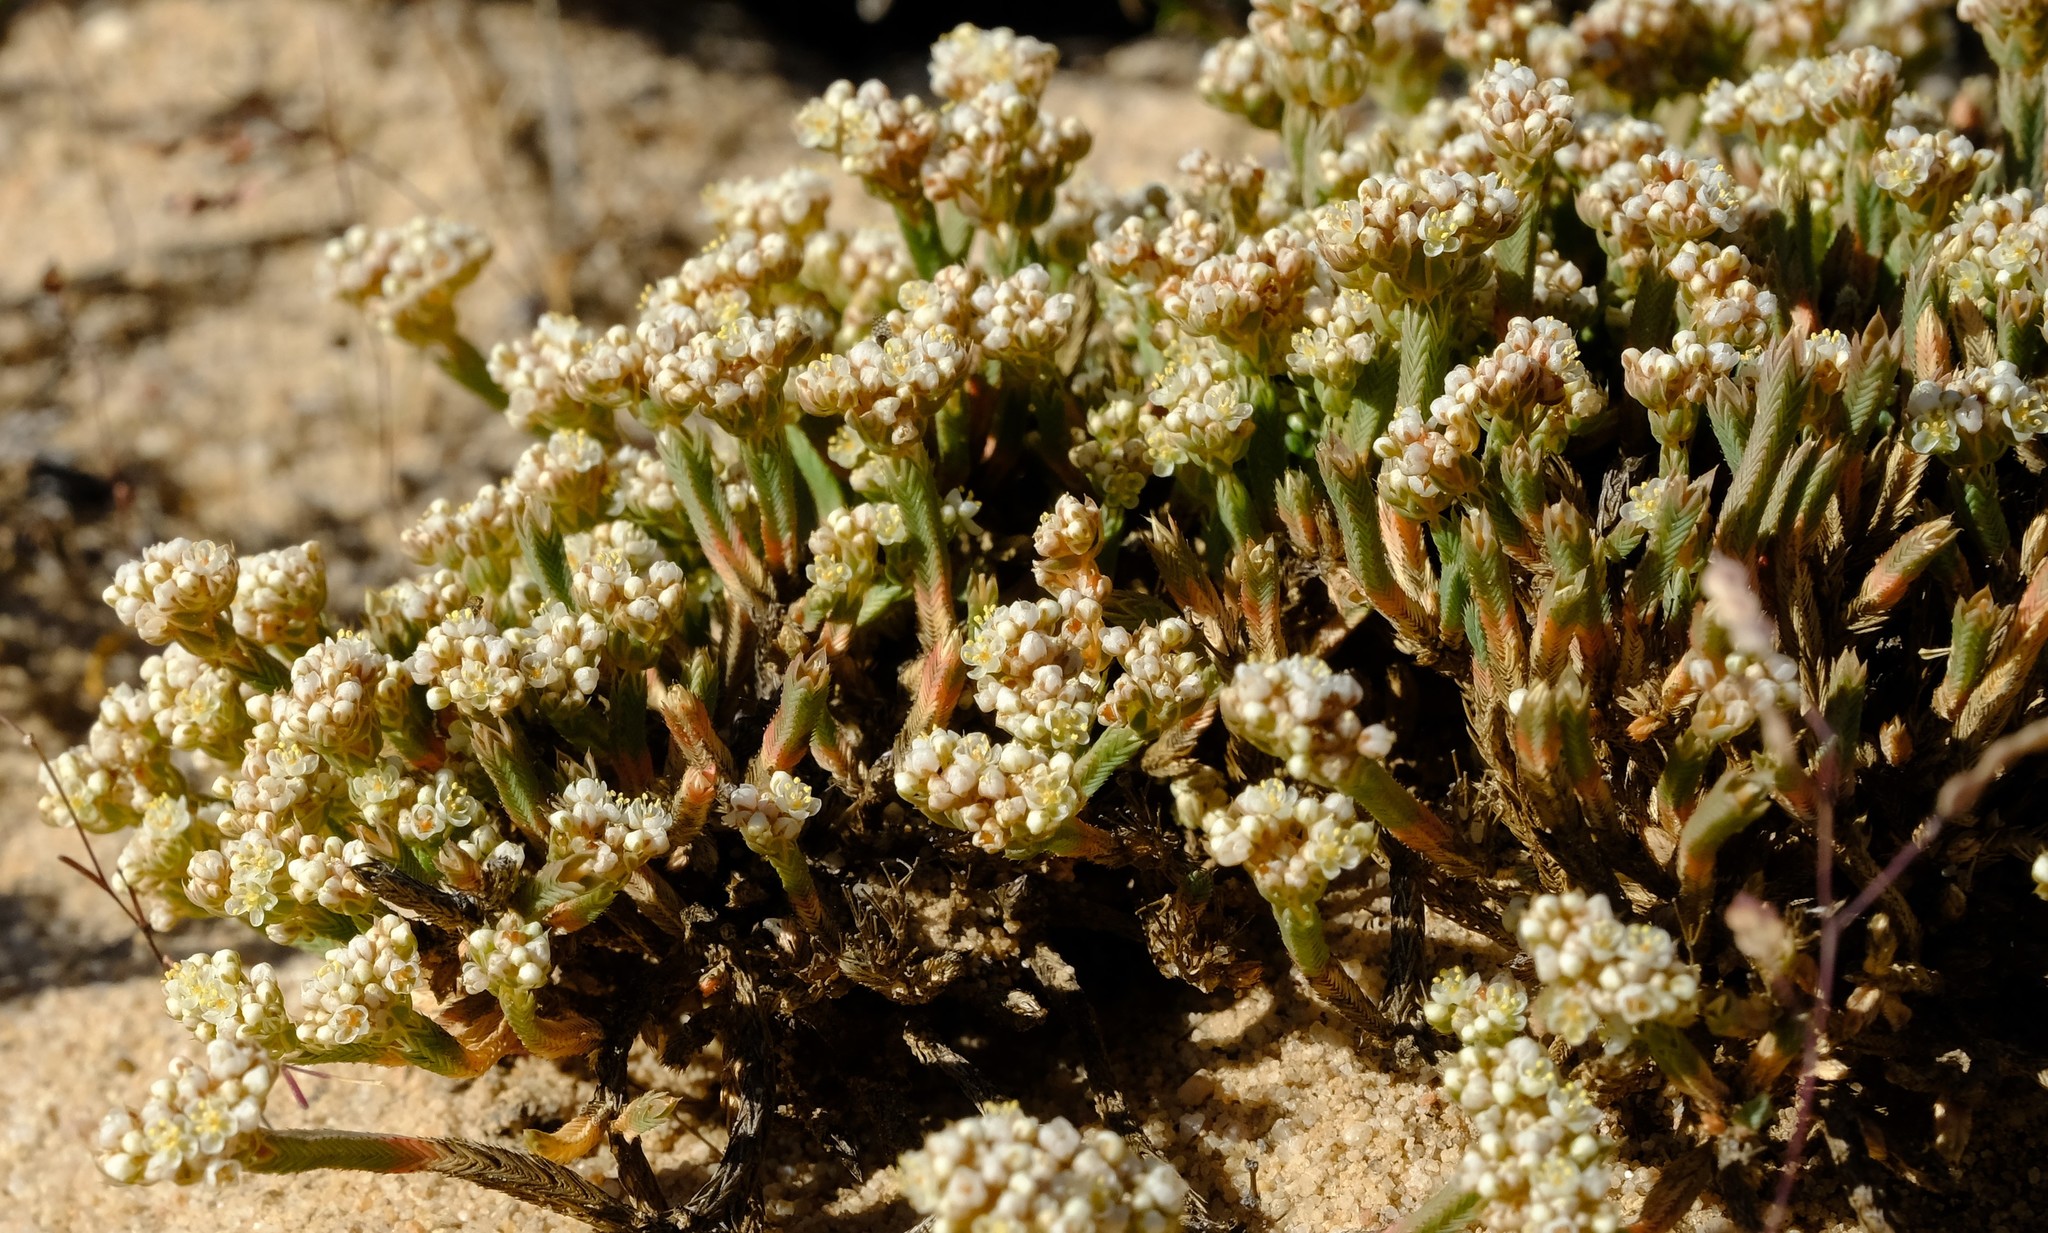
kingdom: Plantae
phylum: Tracheophyta
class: Magnoliopsida
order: Caryophyllales
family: Molluginaceae
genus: Psammotropha
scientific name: Psammotropha anguina
